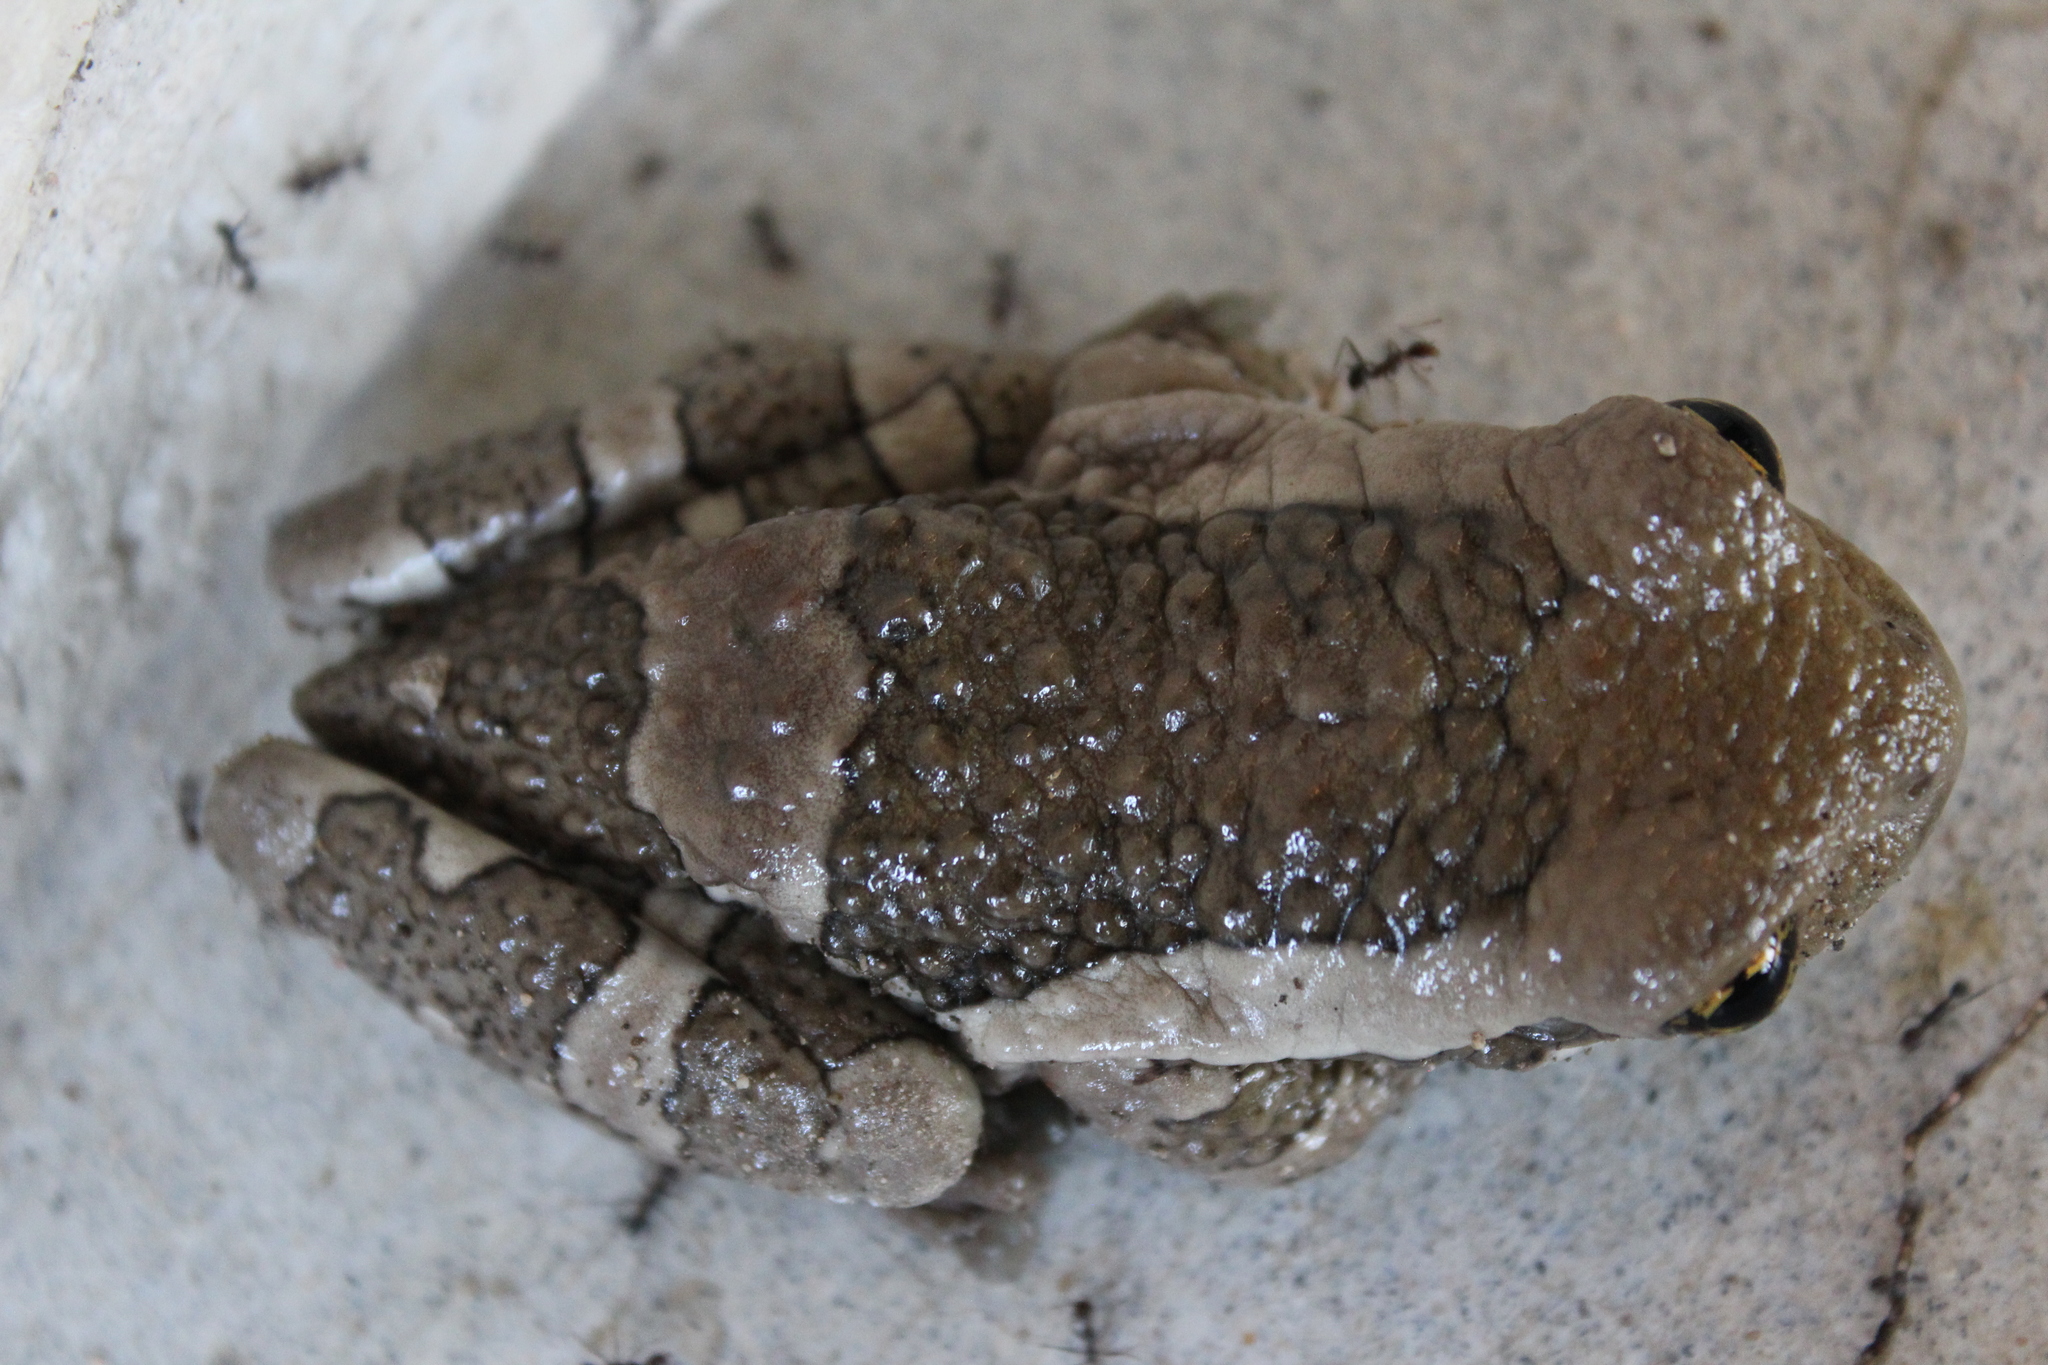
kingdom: Animalia
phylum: Chordata
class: Amphibia
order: Anura
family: Hylidae
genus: Trachycephalus
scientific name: Trachycephalus vermiculatus
